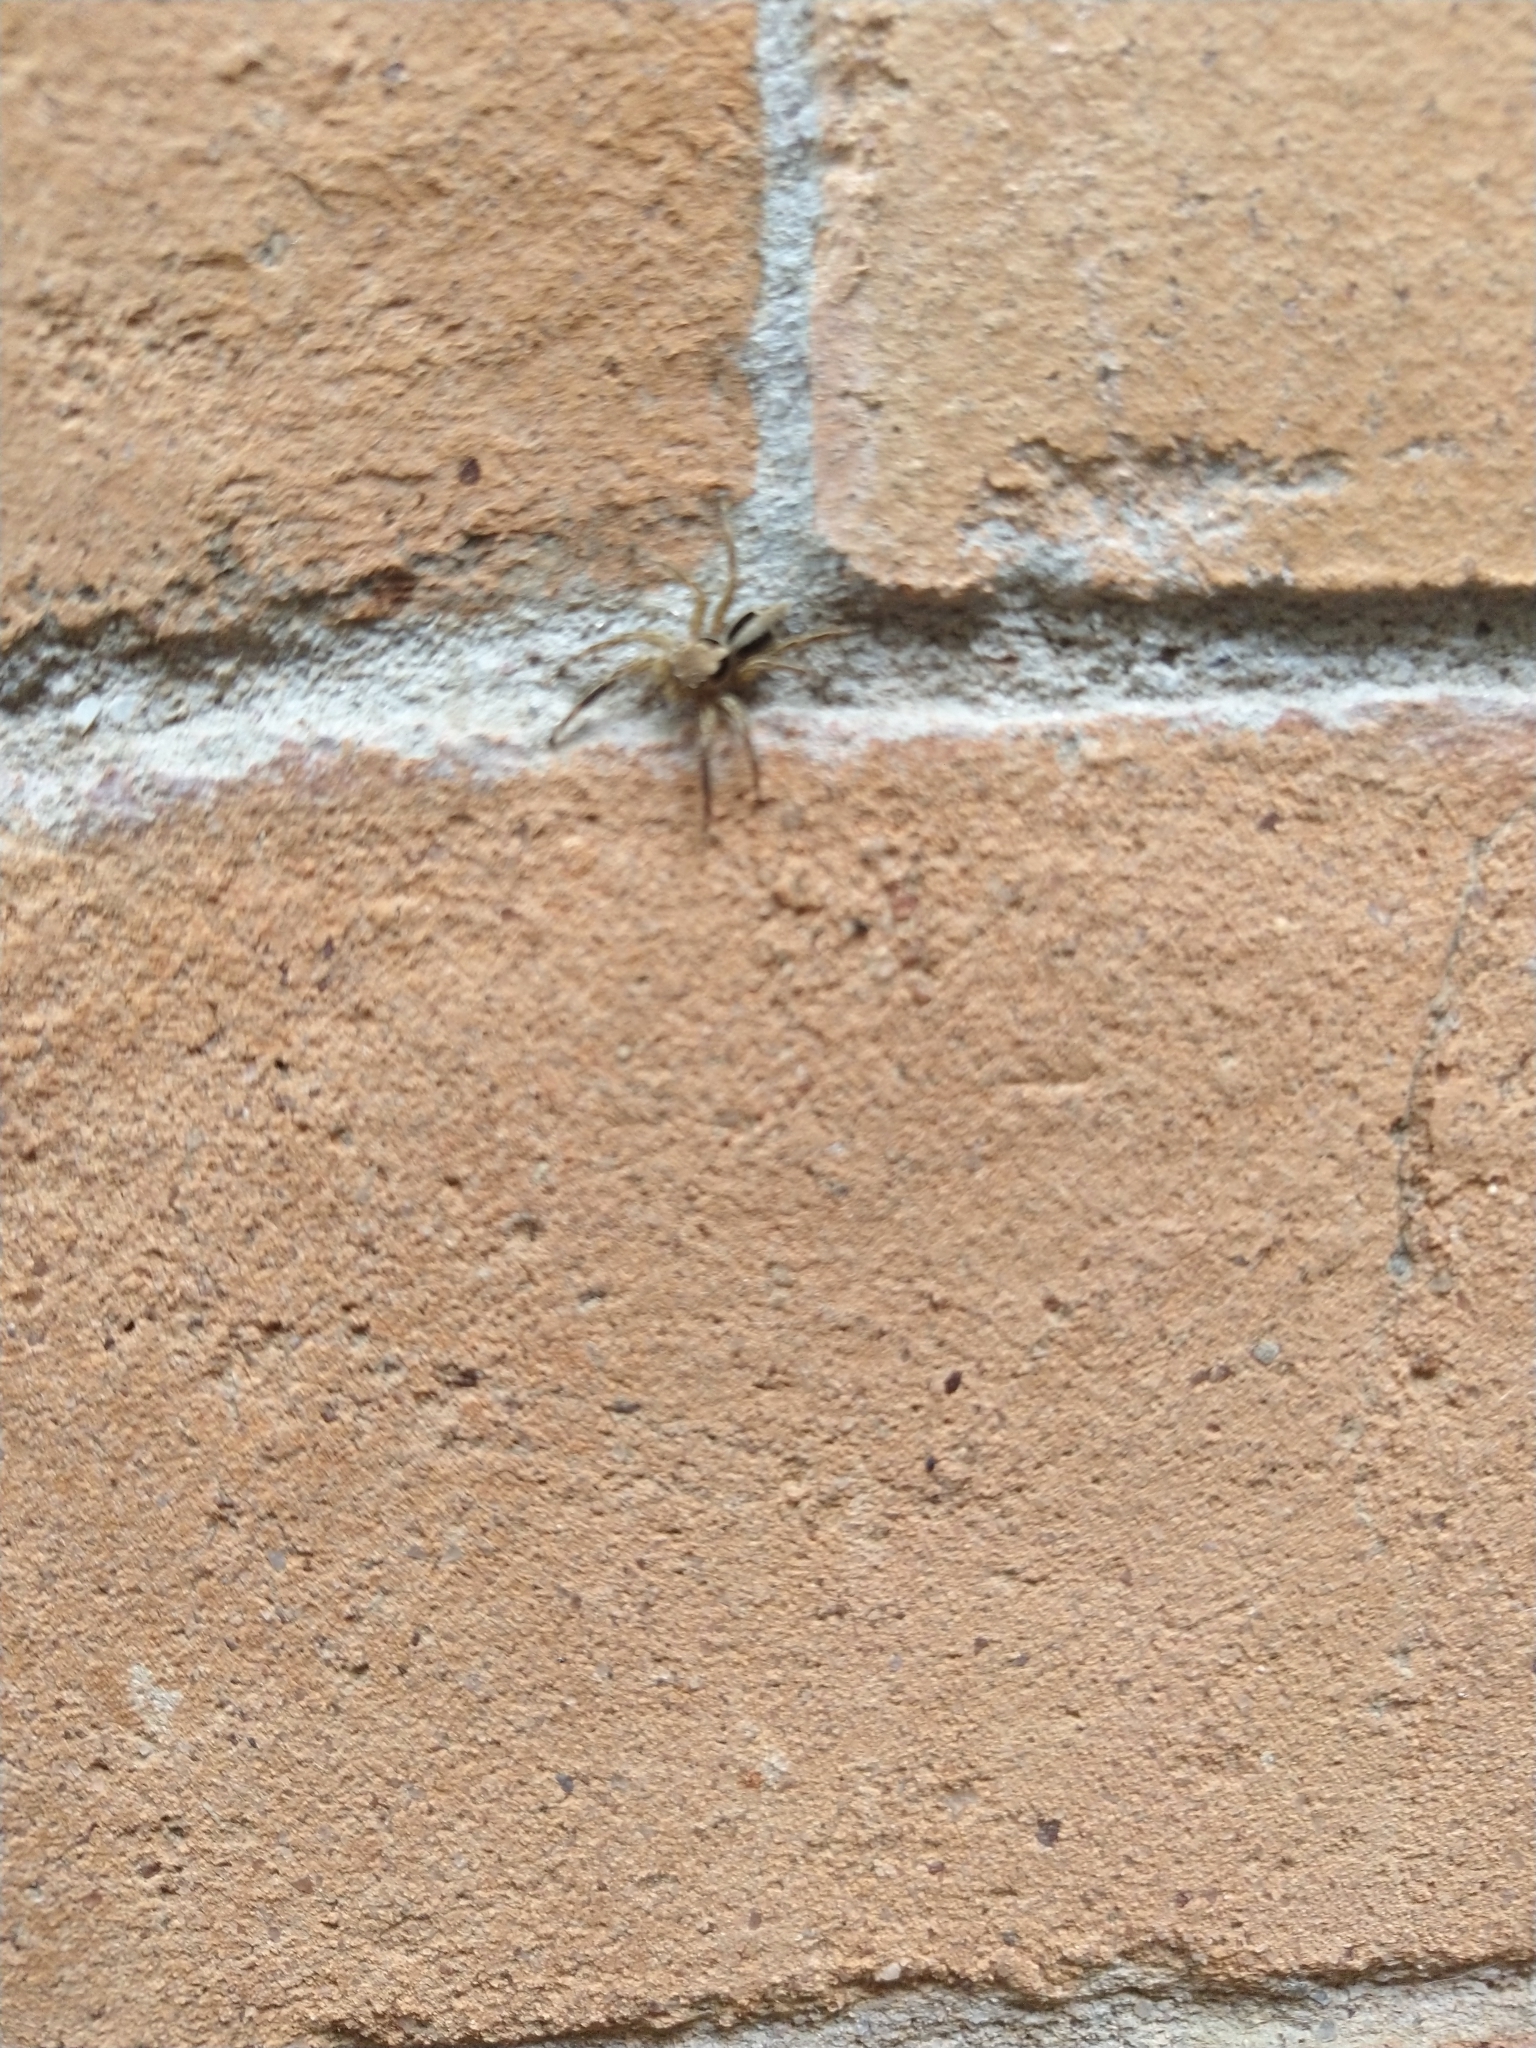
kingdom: Animalia
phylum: Arthropoda
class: Arachnida
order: Araneae
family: Salticidae
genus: Plexippus
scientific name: Plexippus petersi
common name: Jumping spider
